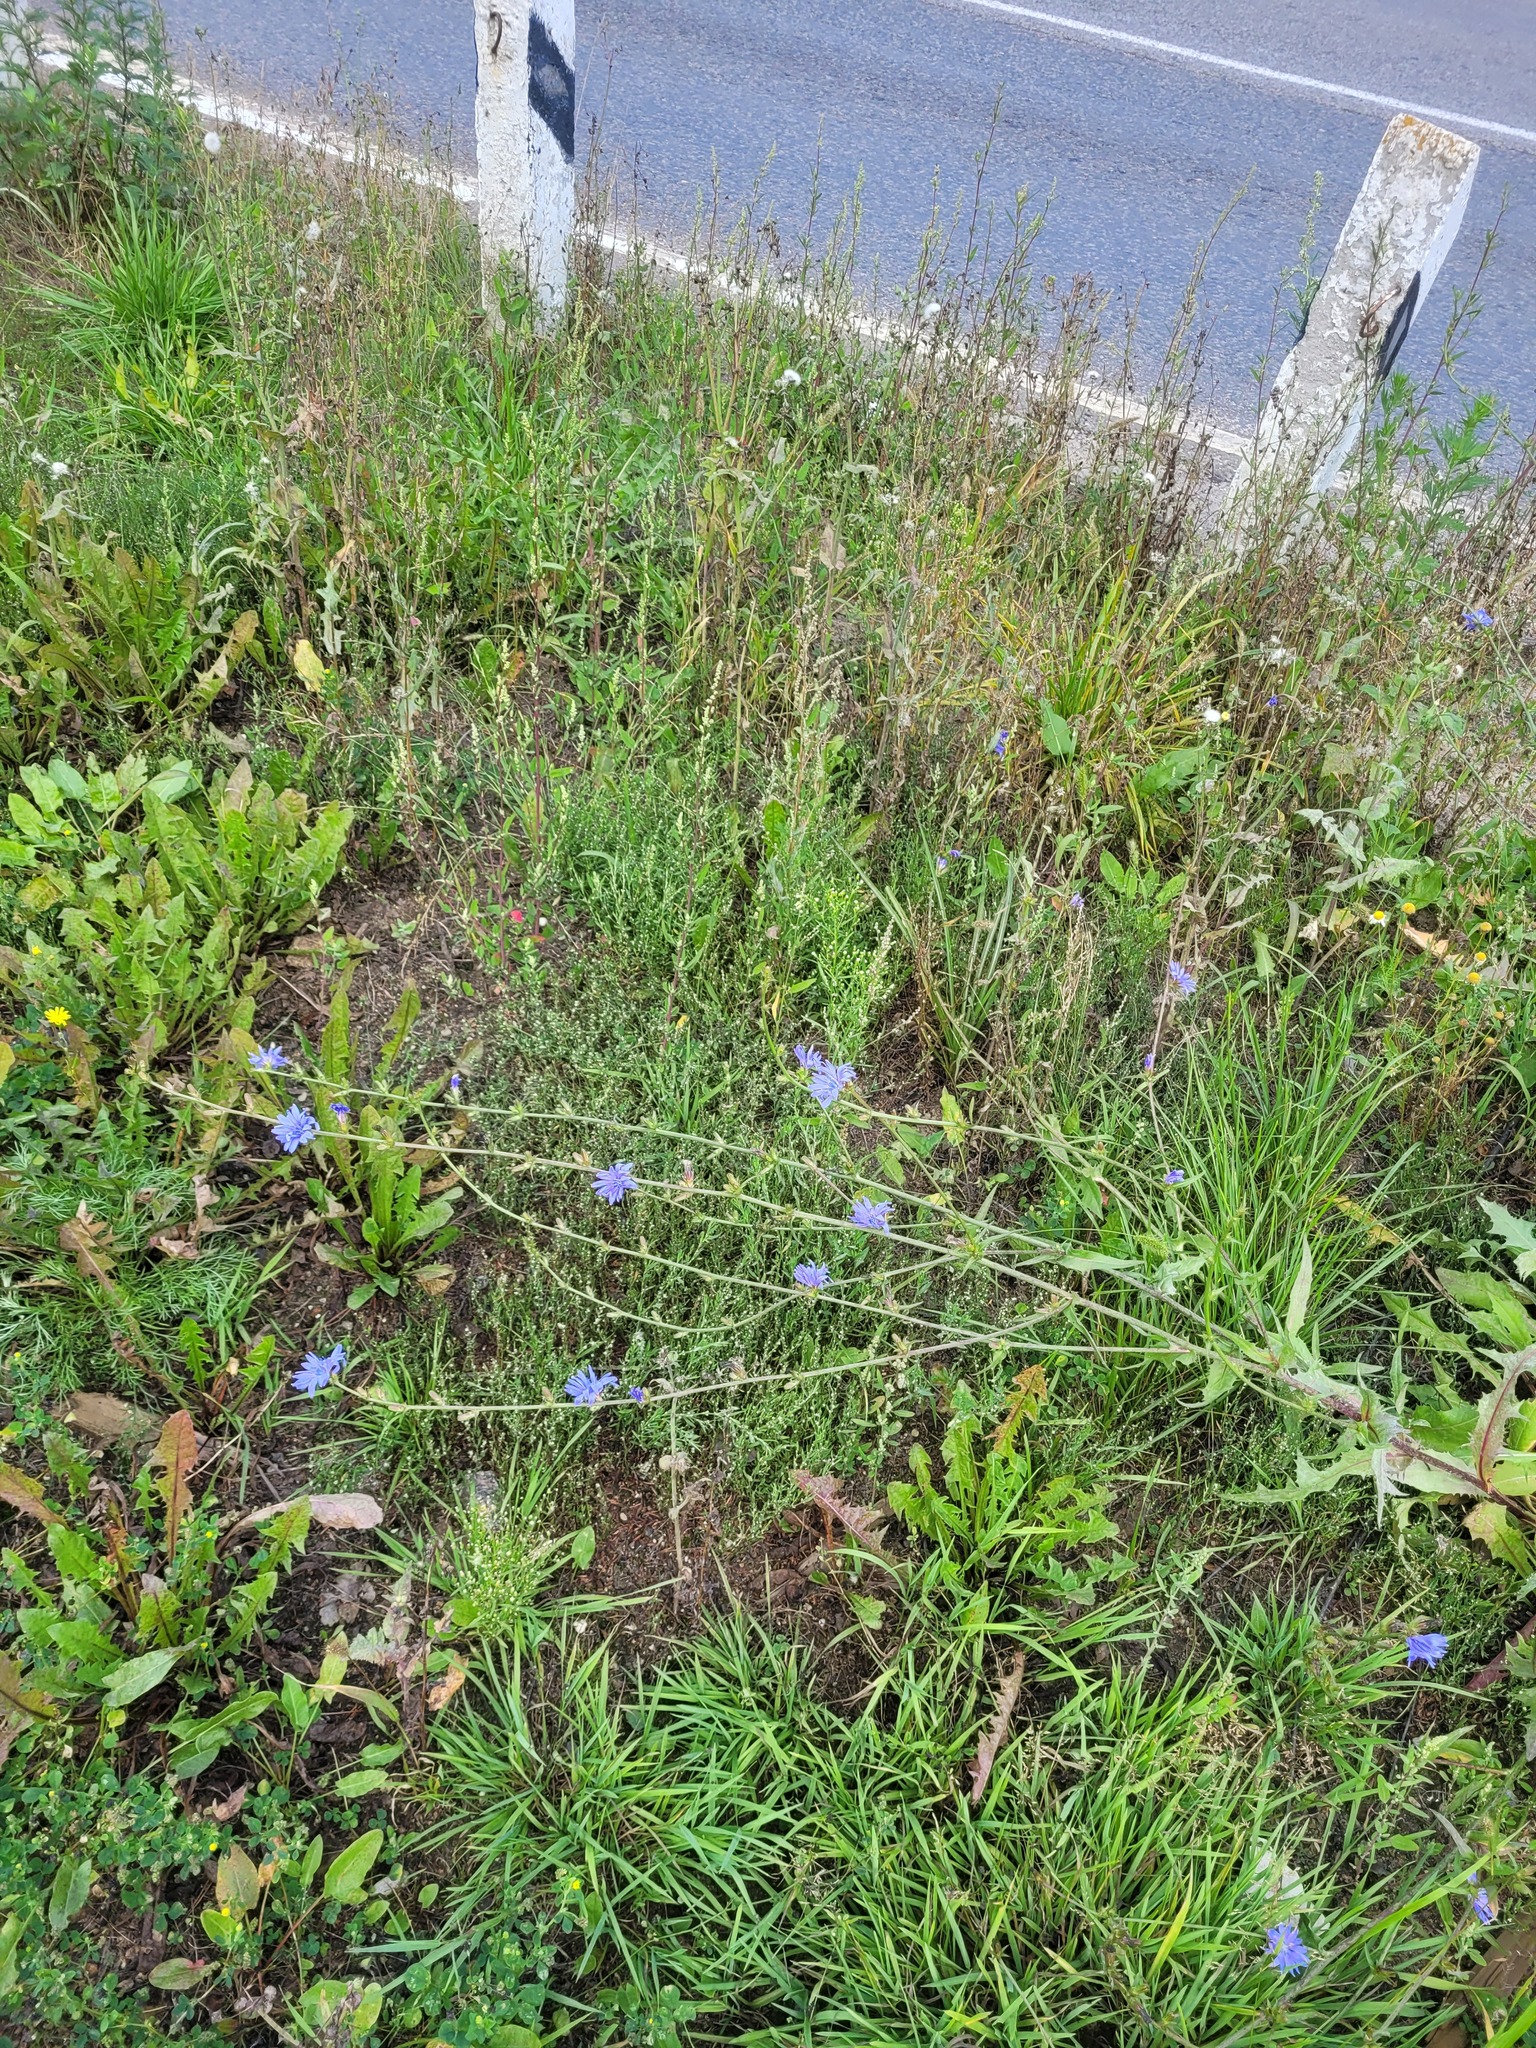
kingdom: Plantae
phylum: Tracheophyta
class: Magnoliopsida
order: Asterales
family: Asteraceae
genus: Cichorium
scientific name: Cichorium intybus
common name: Chicory
